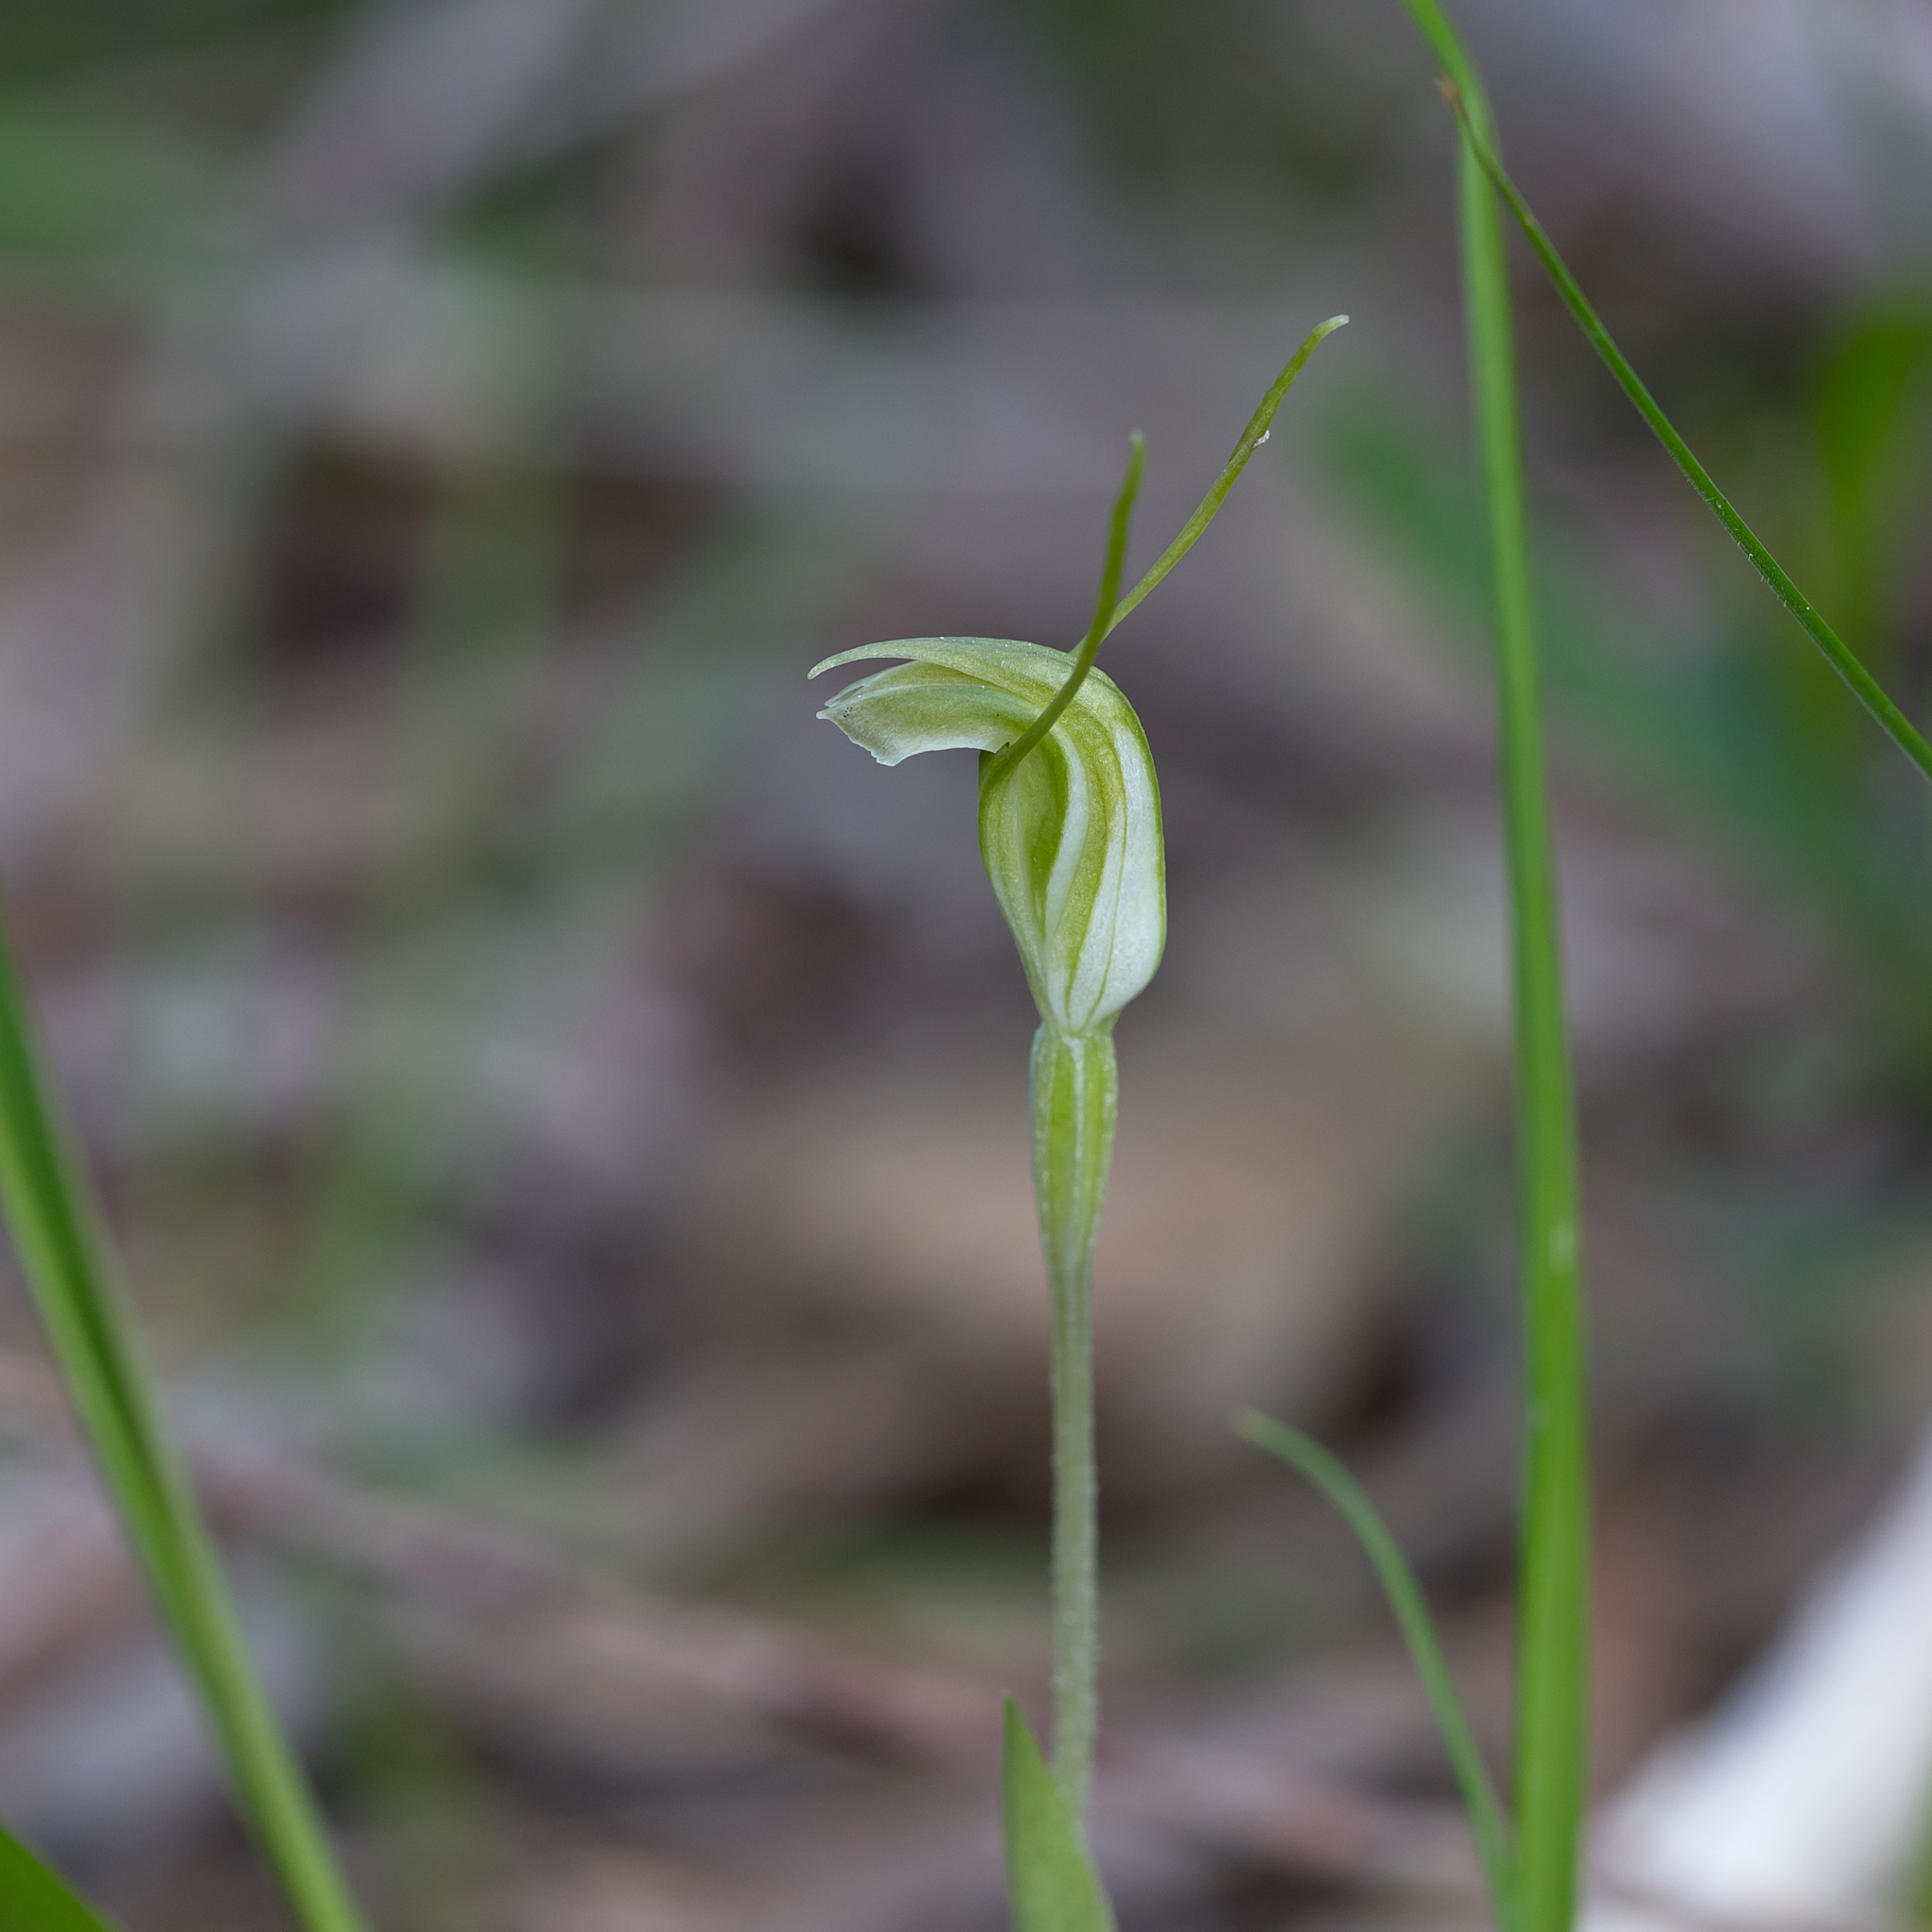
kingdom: Plantae
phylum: Tracheophyta
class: Liliopsida
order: Asparagales
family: Orchidaceae
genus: Pterostylis
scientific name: Pterostylis nana
